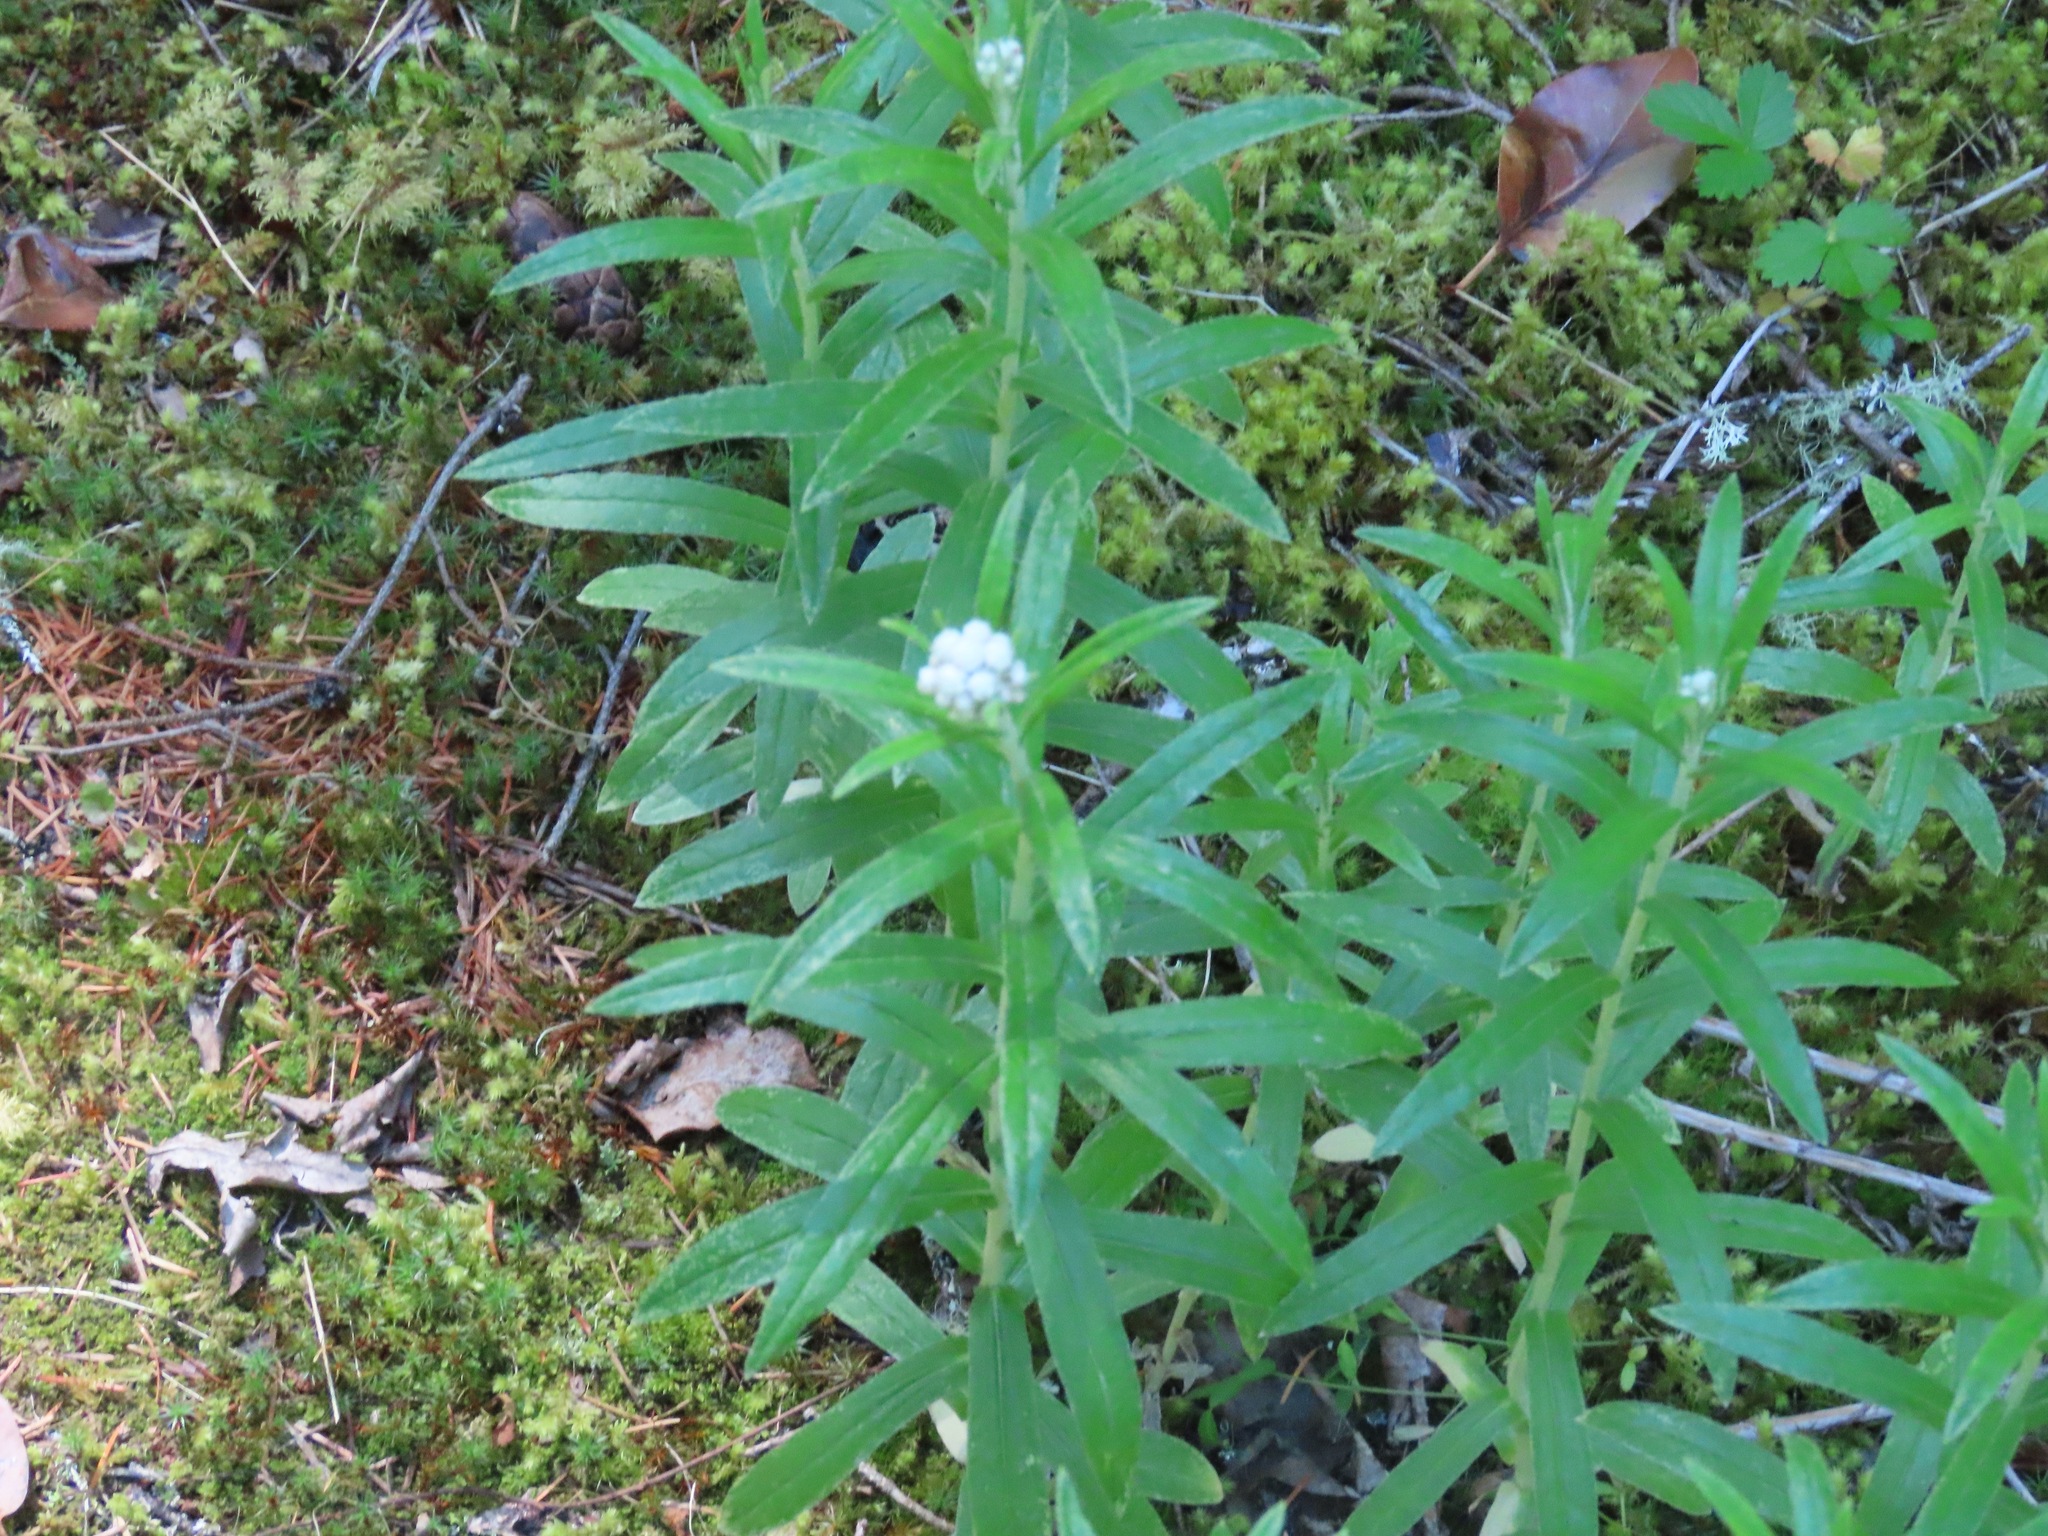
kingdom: Plantae
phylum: Tracheophyta
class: Magnoliopsida
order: Asterales
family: Asteraceae
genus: Anaphalis
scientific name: Anaphalis margaritacea
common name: Pearly everlasting
